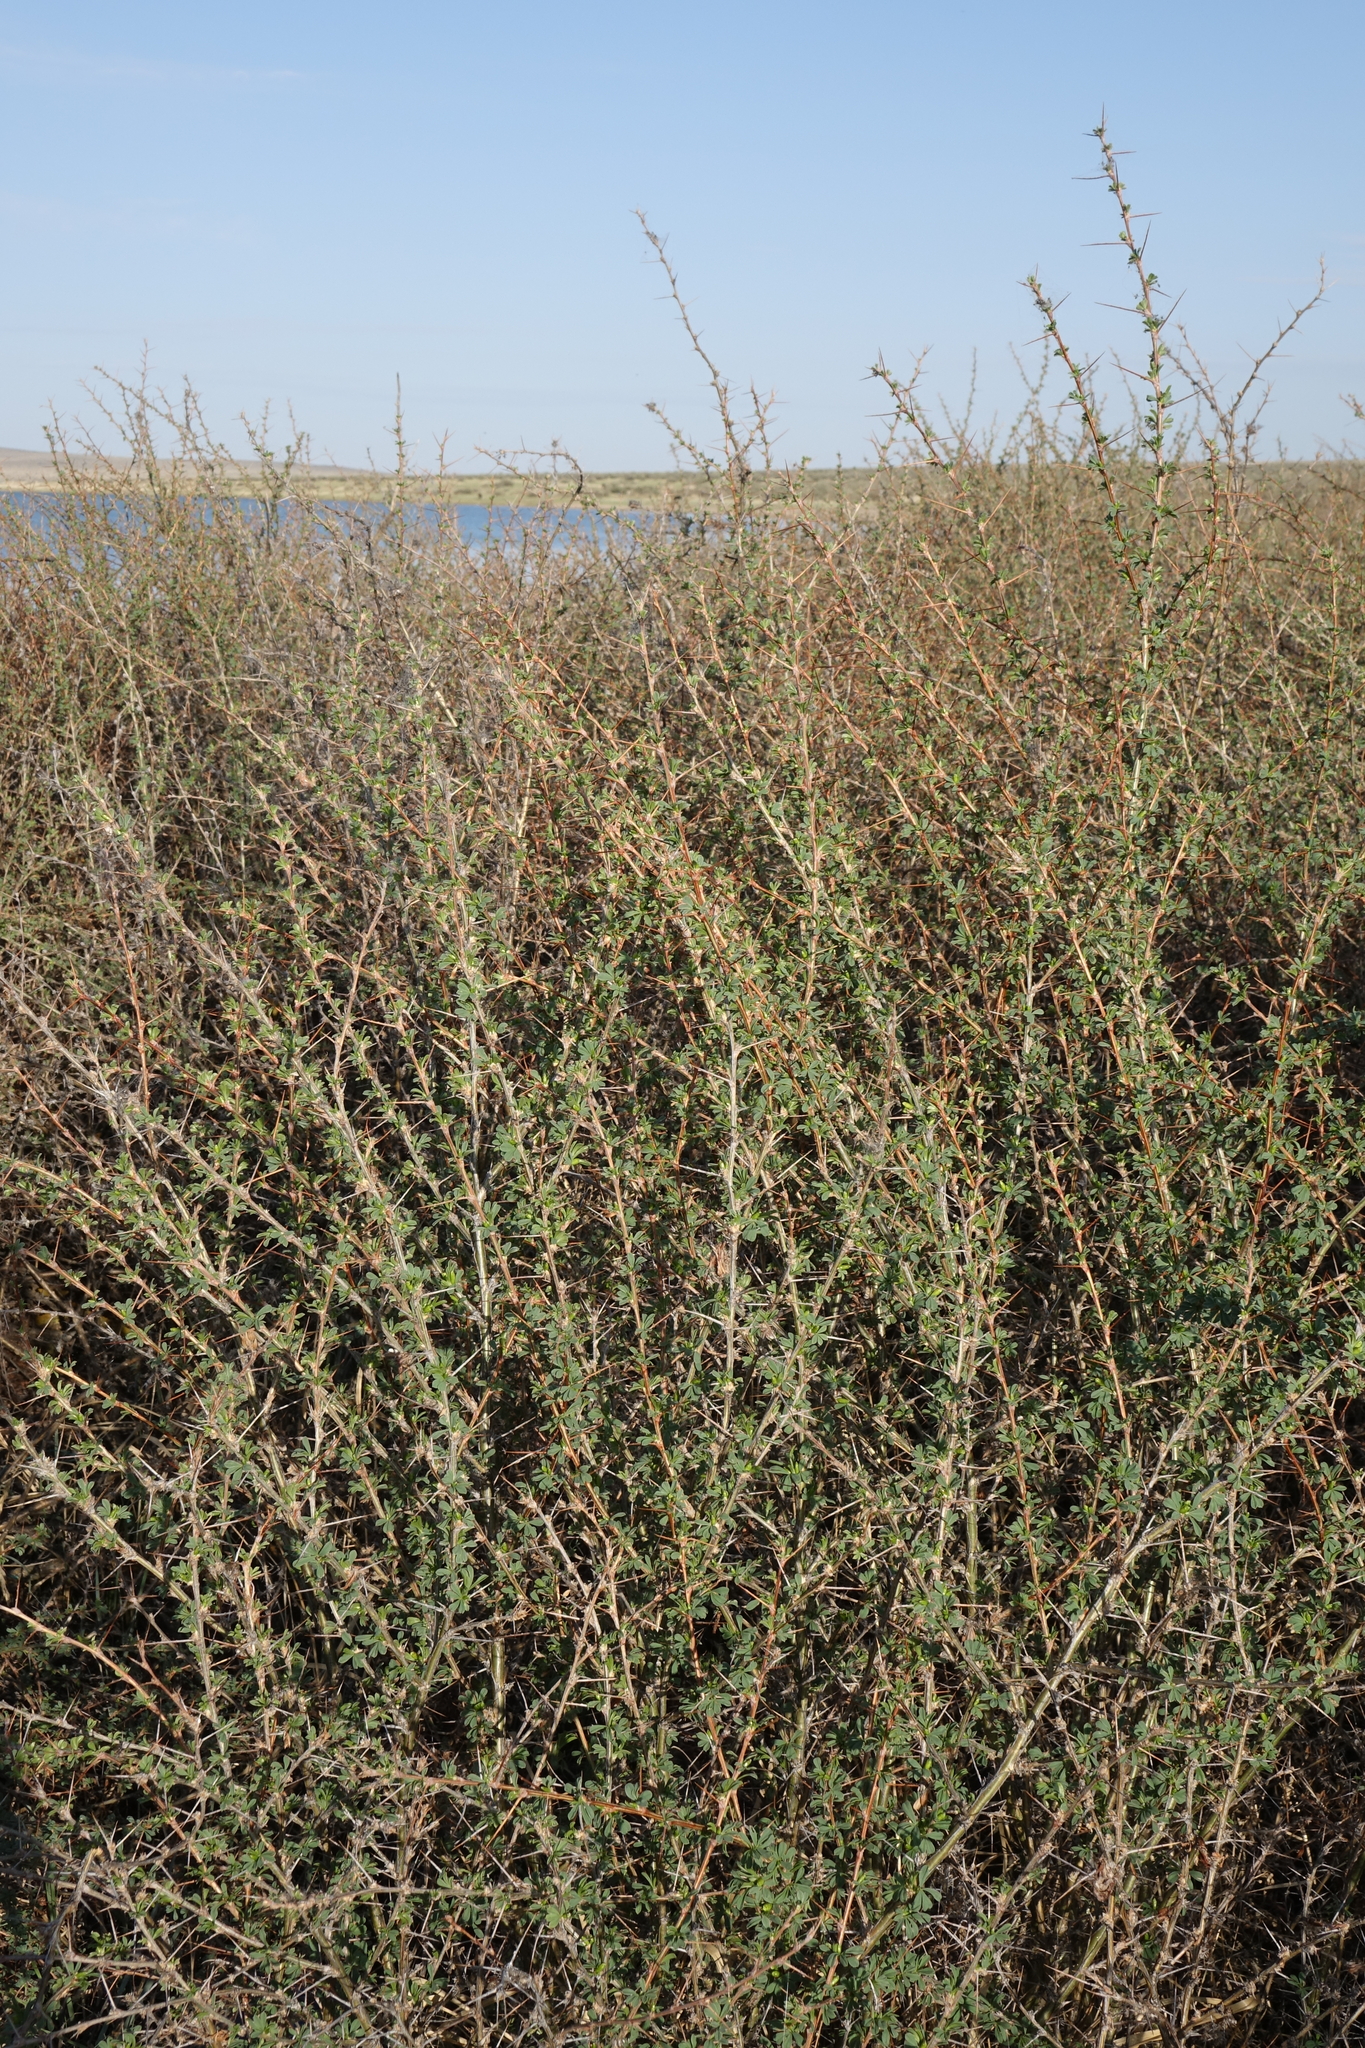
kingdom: Plantae
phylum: Tracheophyta
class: Magnoliopsida
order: Fabales
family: Fabaceae
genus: Caragana
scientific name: Caragana spinosa
